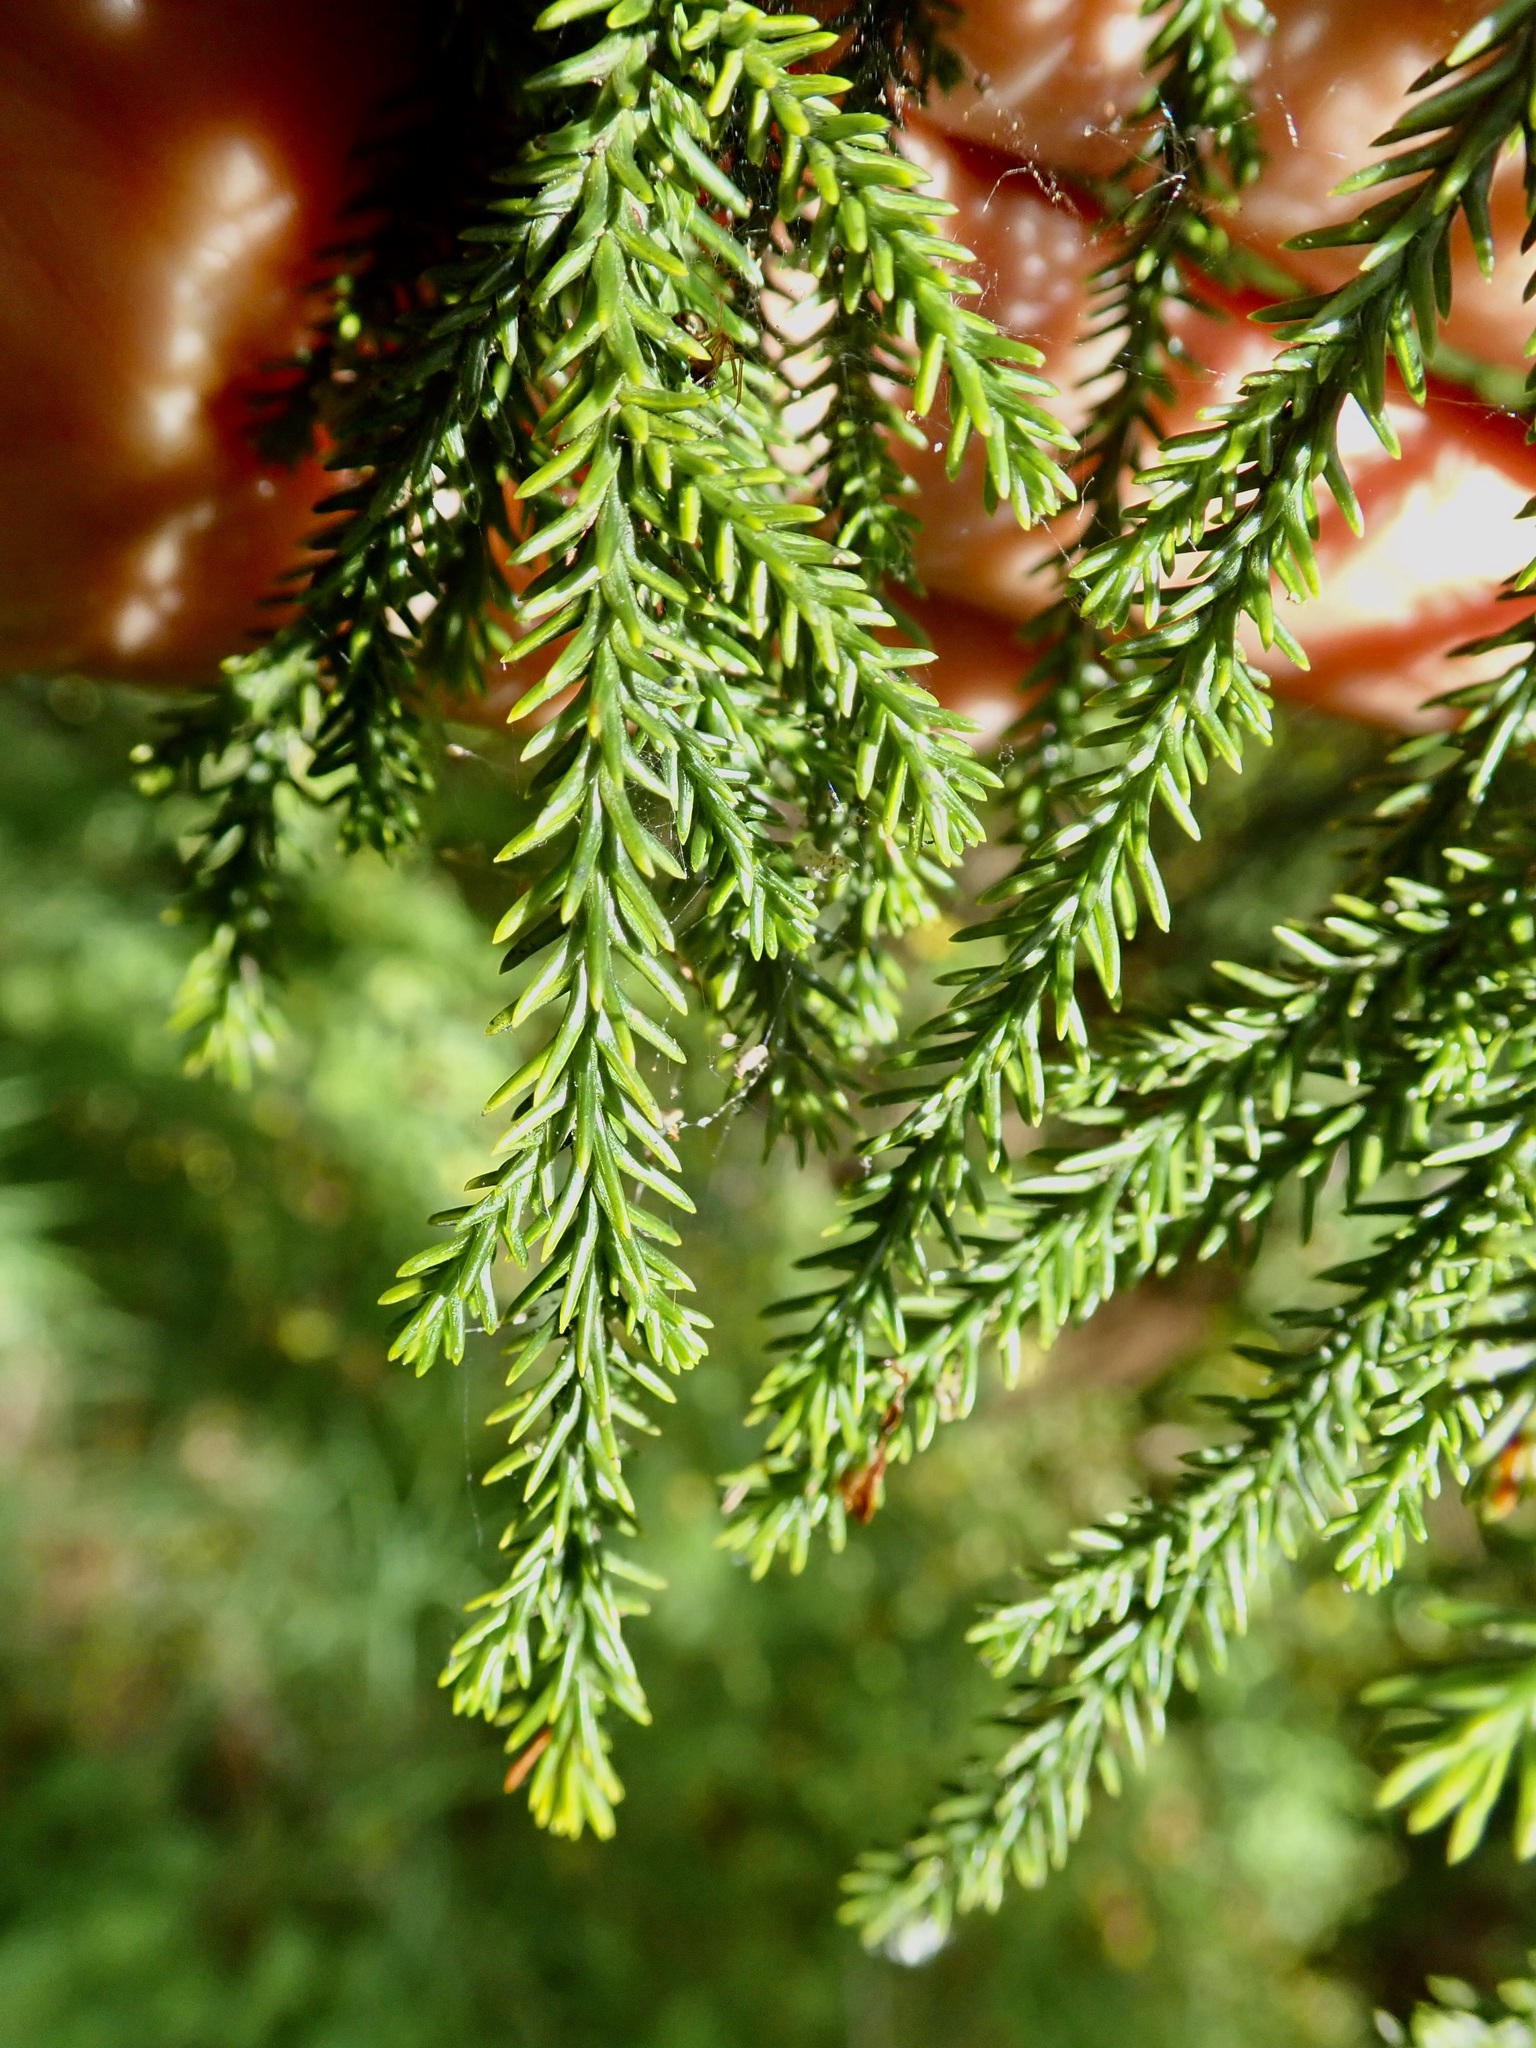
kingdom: Plantae
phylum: Tracheophyta
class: Pinopsida
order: Pinales
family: Podocarpaceae
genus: Dacrydium
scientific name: Dacrydium cupressinum
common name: Red pine
